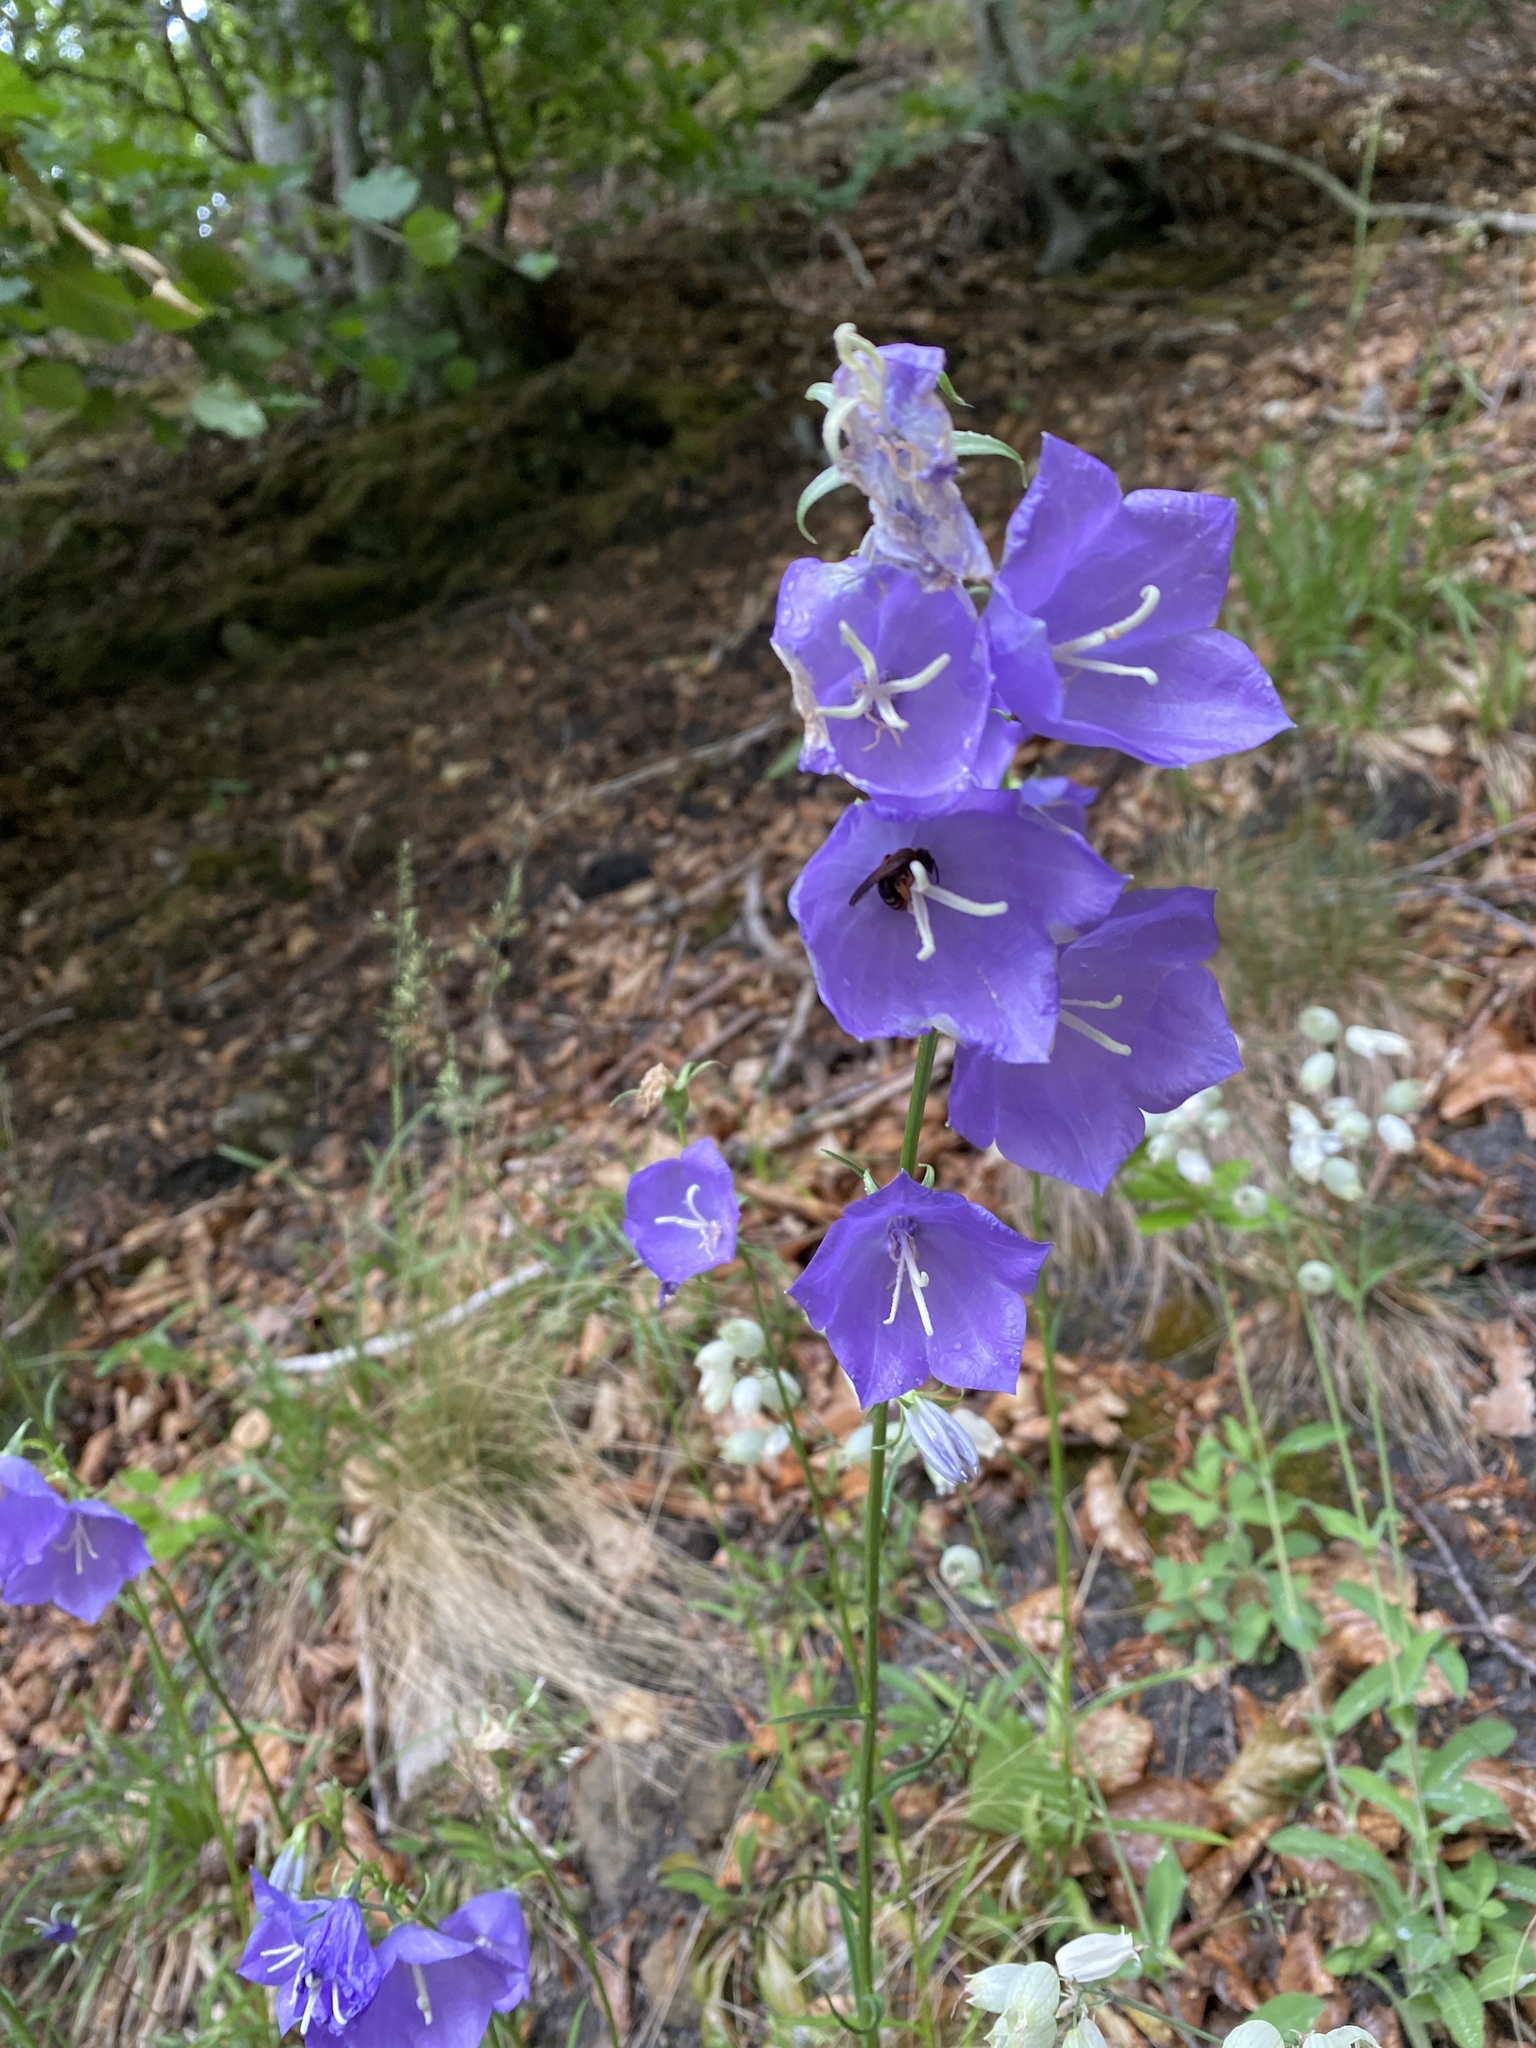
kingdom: Plantae
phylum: Tracheophyta
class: Magnoliopsida
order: Asterales
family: Campanulaceae
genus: Campanula
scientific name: Campanula persicifolia
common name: Peach-leaved bellflower
